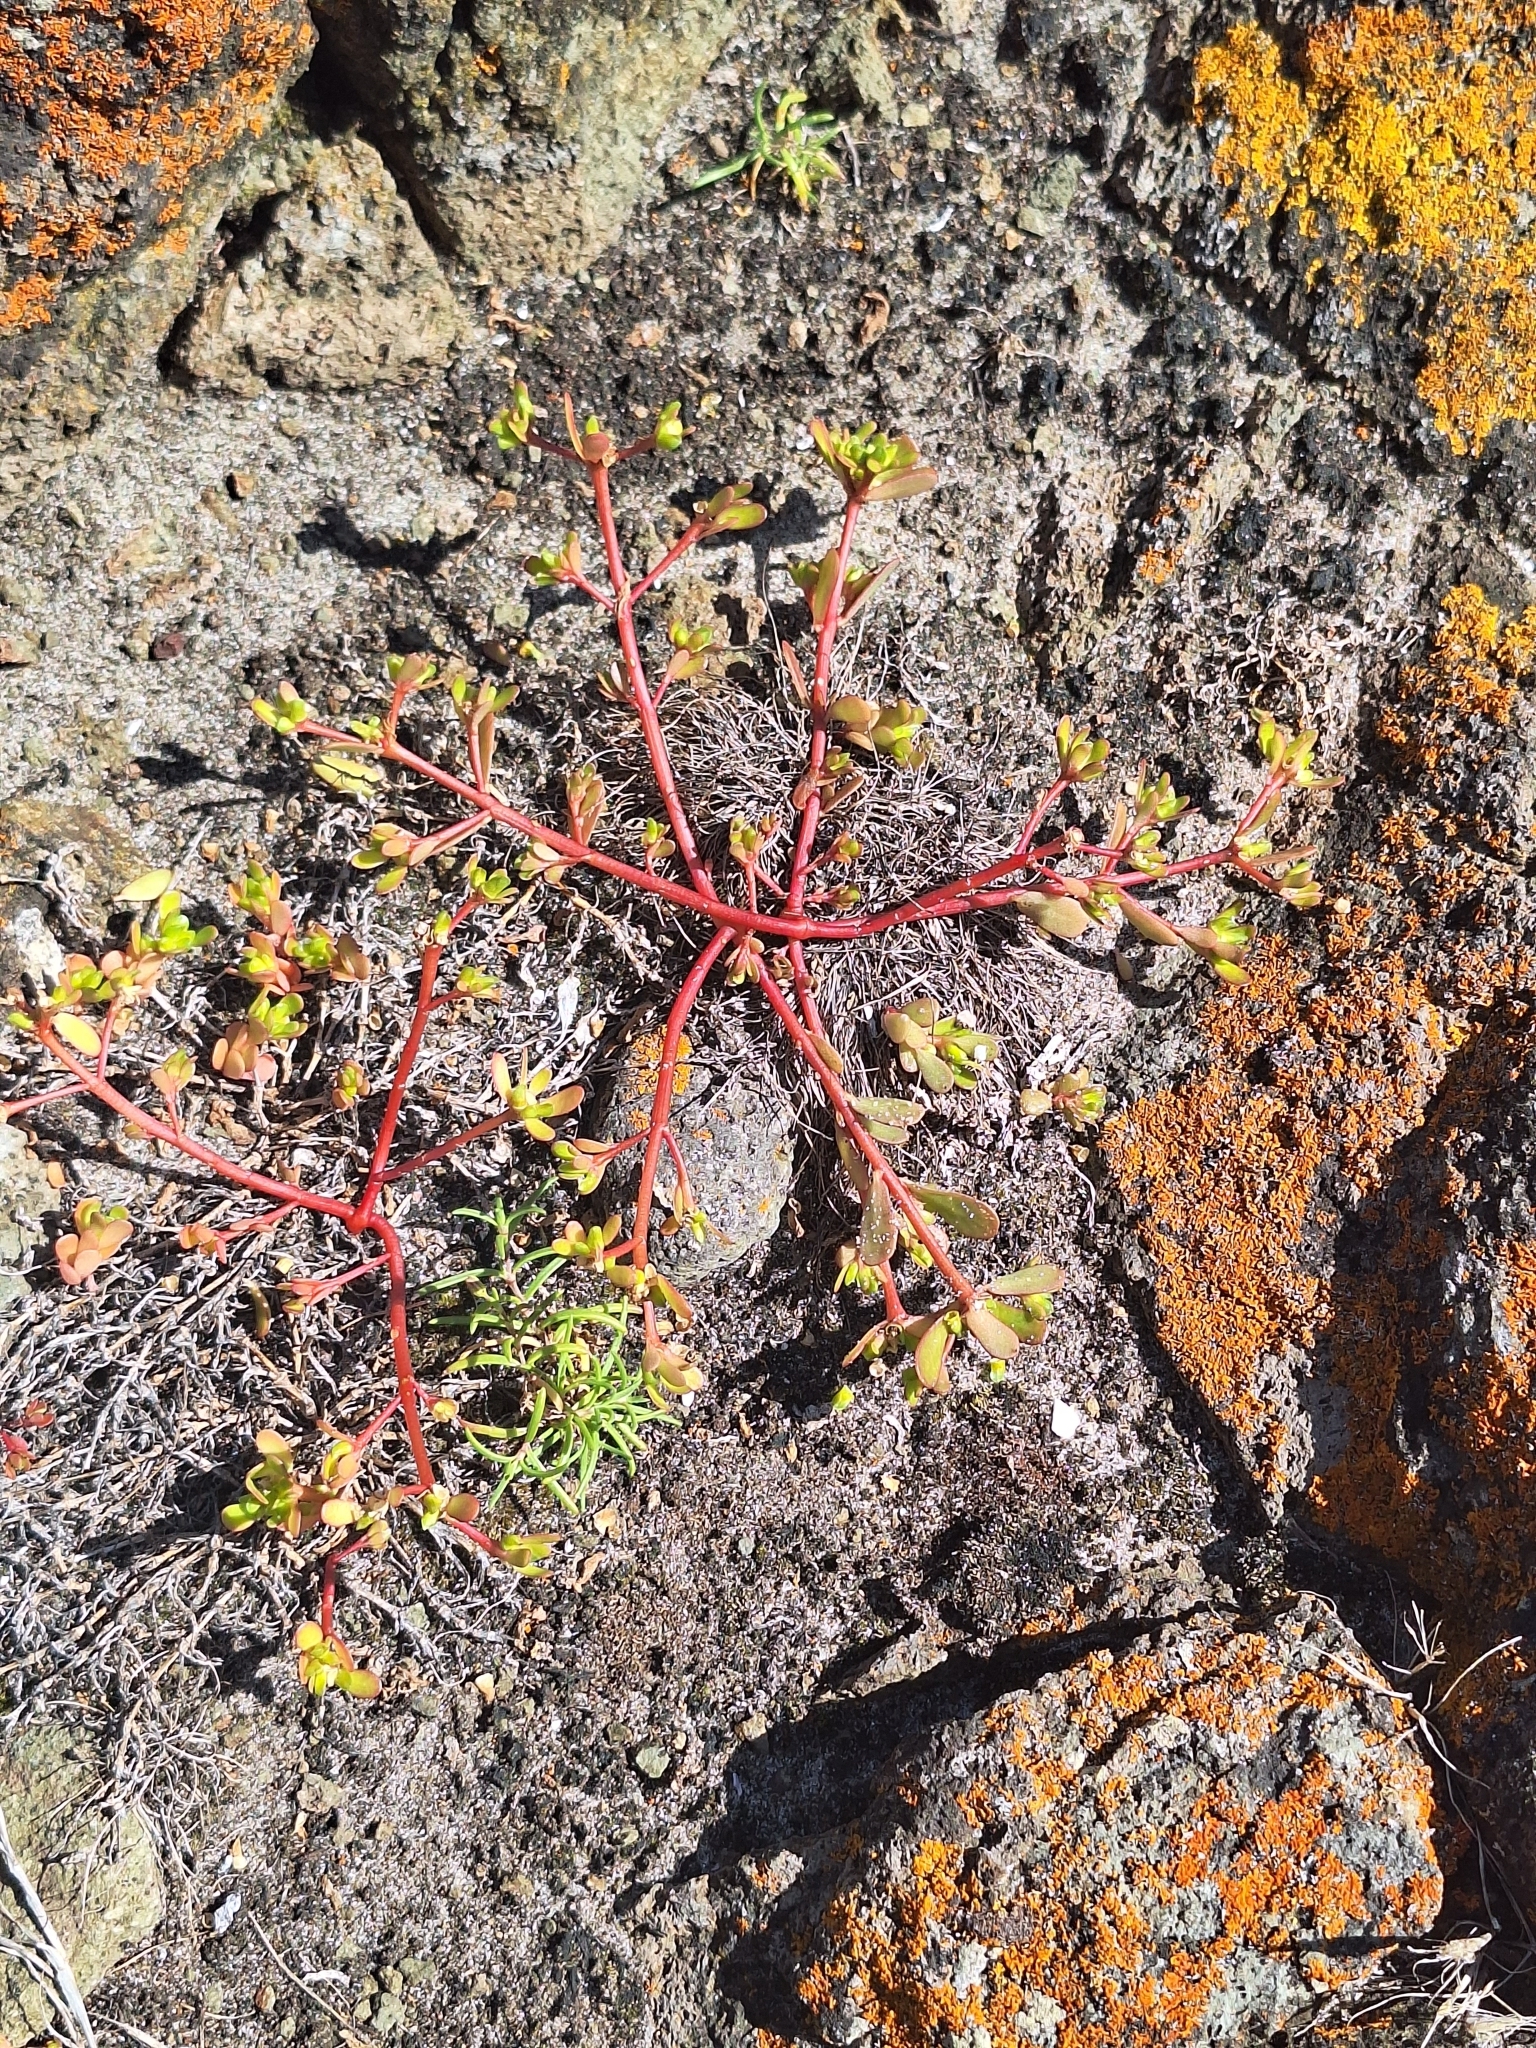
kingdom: Plantae
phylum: Tracheophyta
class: Magnoliopsida
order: Caryophyllales
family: Portulacaceae
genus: Portulaca
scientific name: Portulaca oleracea
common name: Common purslane
